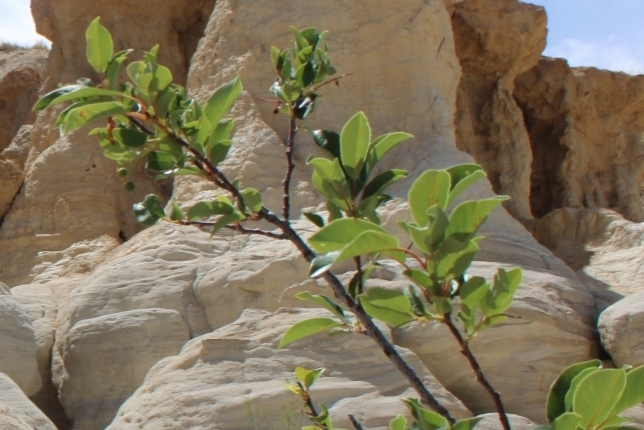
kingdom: Plantae
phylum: Tracheophyta
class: Magnoliopsida
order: Rosales
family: Rosaceae
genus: Prunus
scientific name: Prunus virginiana
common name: Chokecherry
